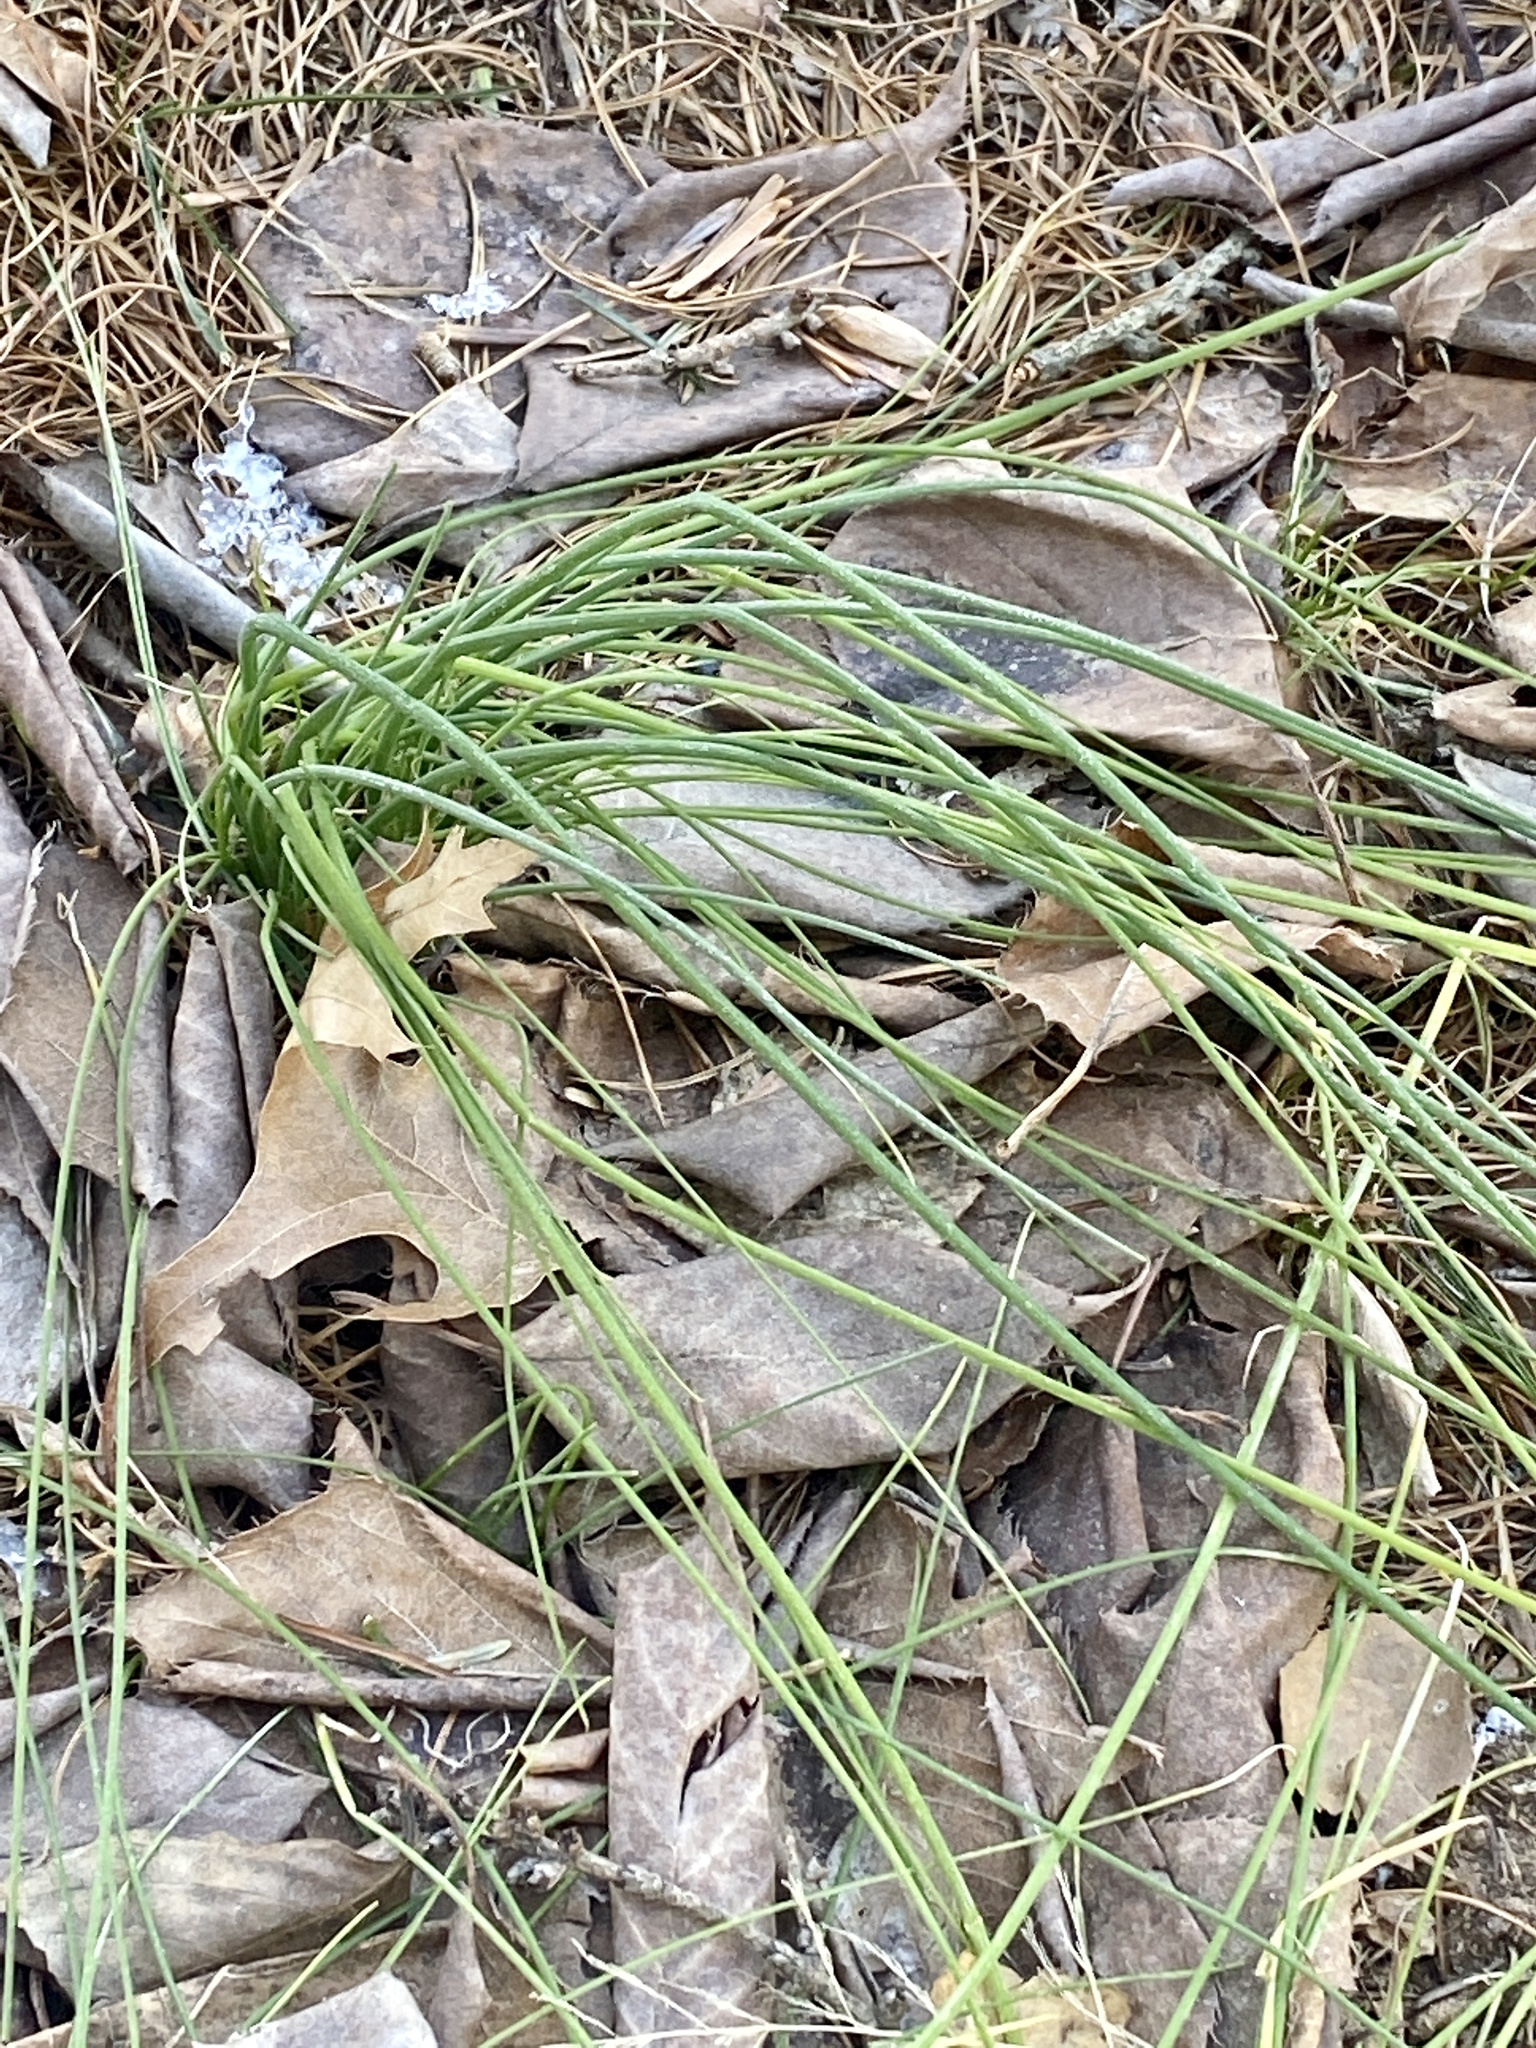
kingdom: Plantae
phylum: Tracheophyta
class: Liliopsida
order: Asparagales
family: Amaryllidaceae
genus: Allium
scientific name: Allium vineale
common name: Crow garlic
